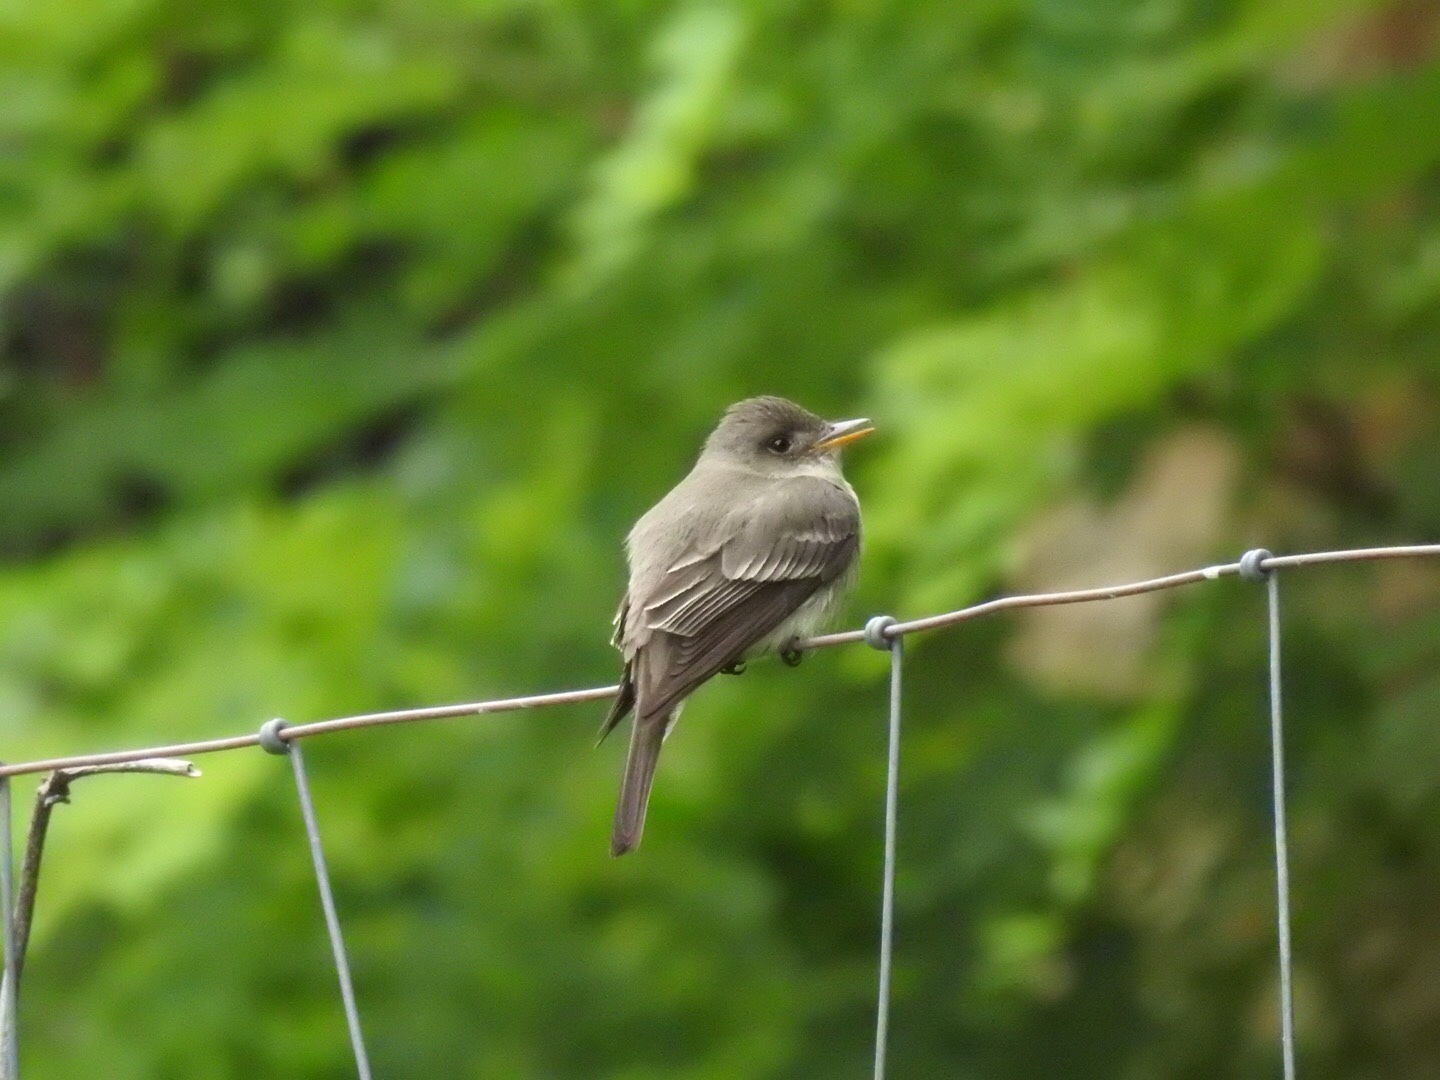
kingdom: Animalia
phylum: Chordata
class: Aves
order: Passeriformes
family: Tyrannidae
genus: Contopus
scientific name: Contopus virens
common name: Eastern wood-pewee
